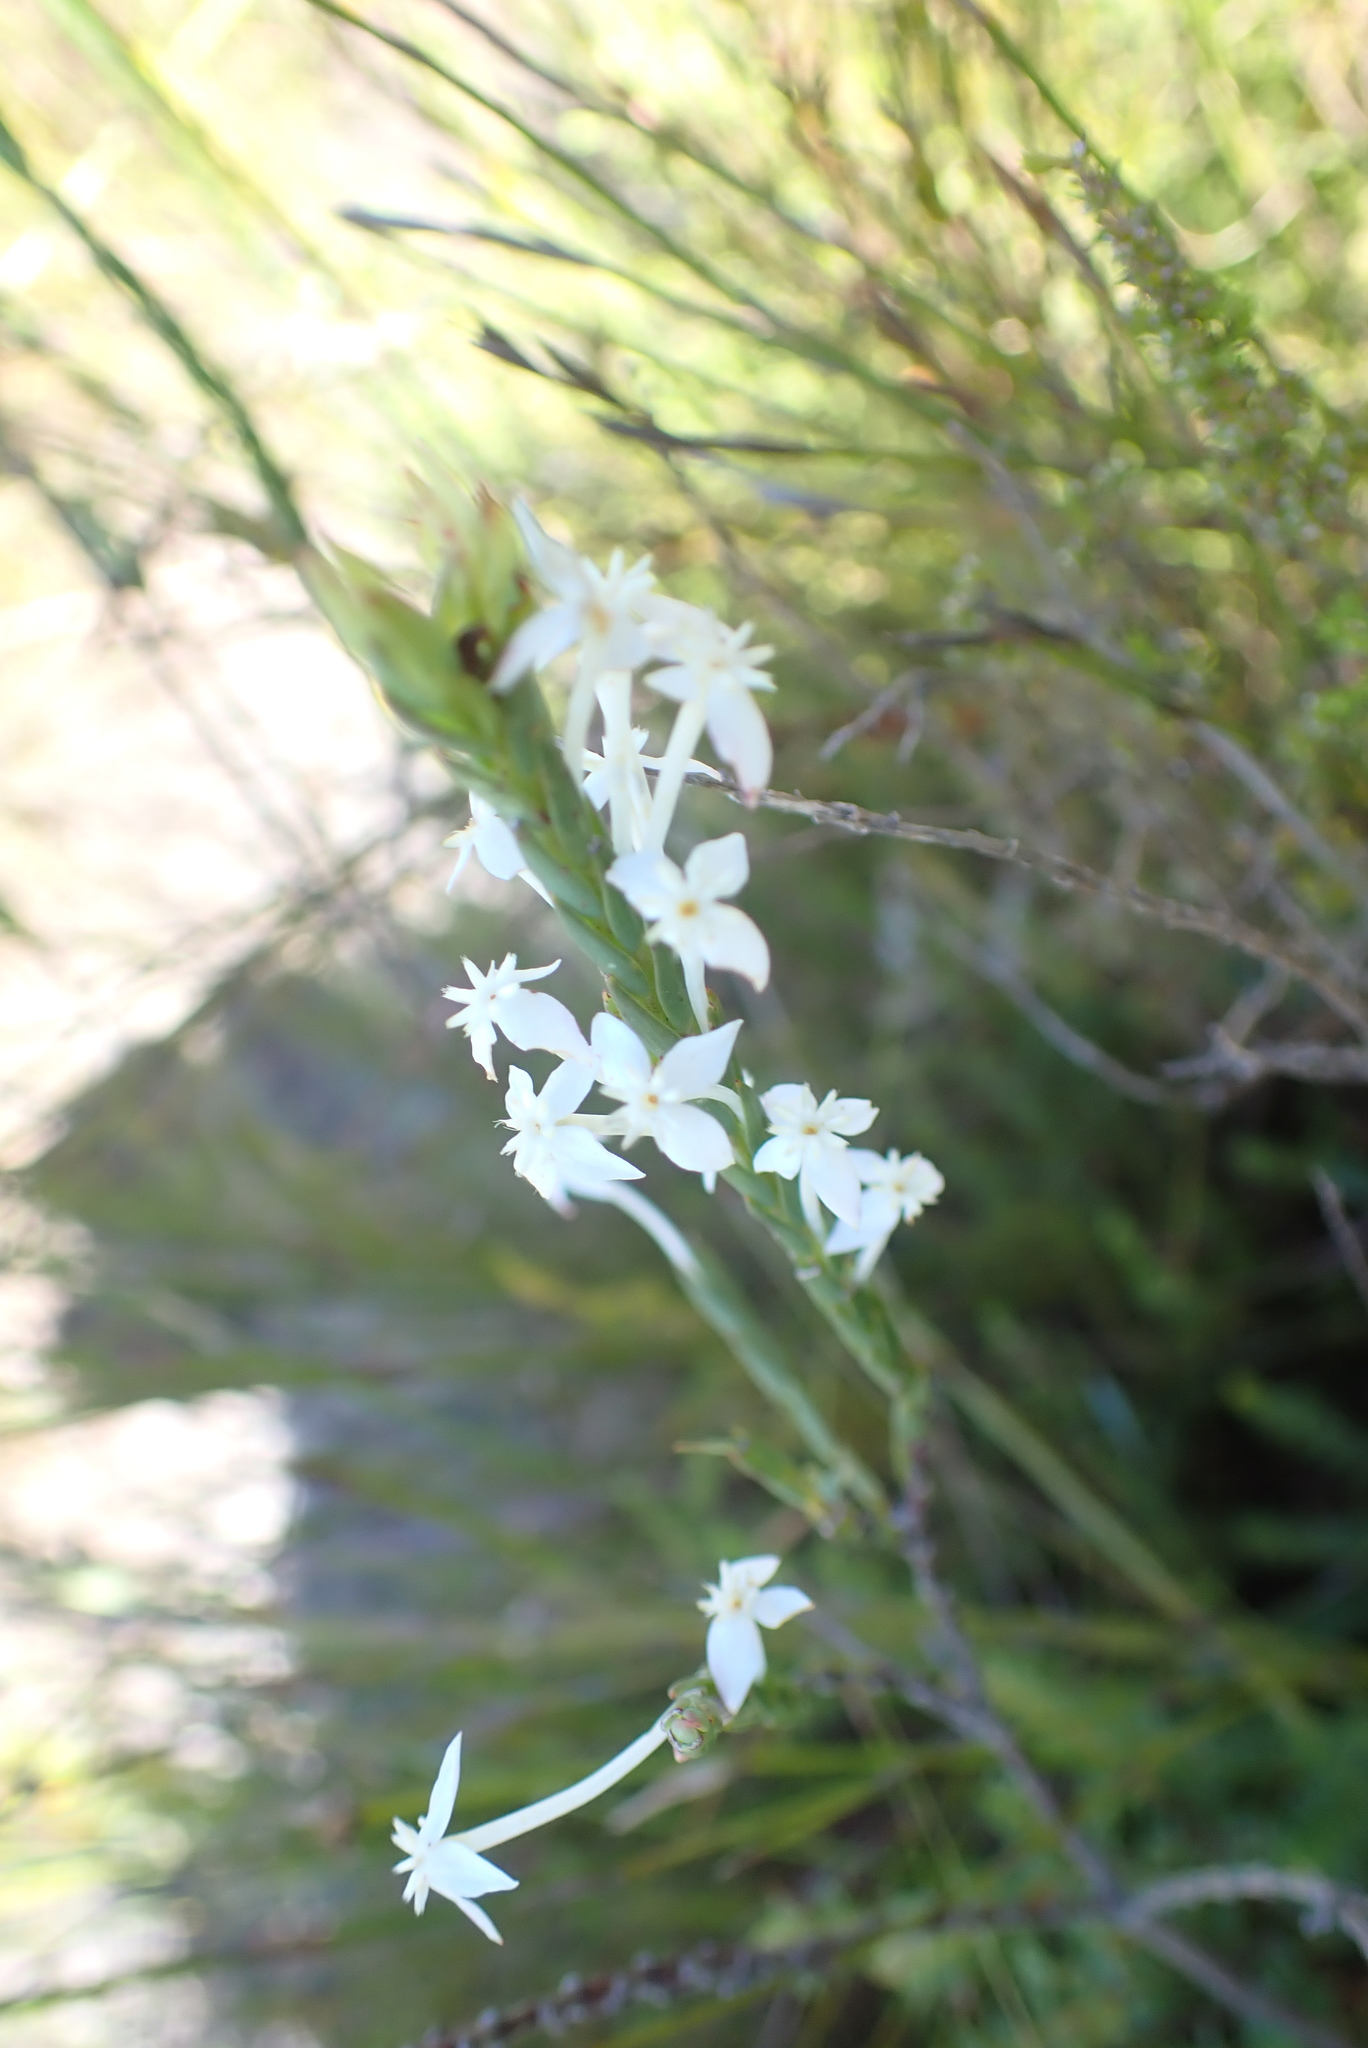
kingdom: Plantae
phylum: Tracheophyta
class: Magnoliopsida
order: Malvales
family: Thymelaeaceae
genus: Struthiola
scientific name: Struthiola myrsinites
